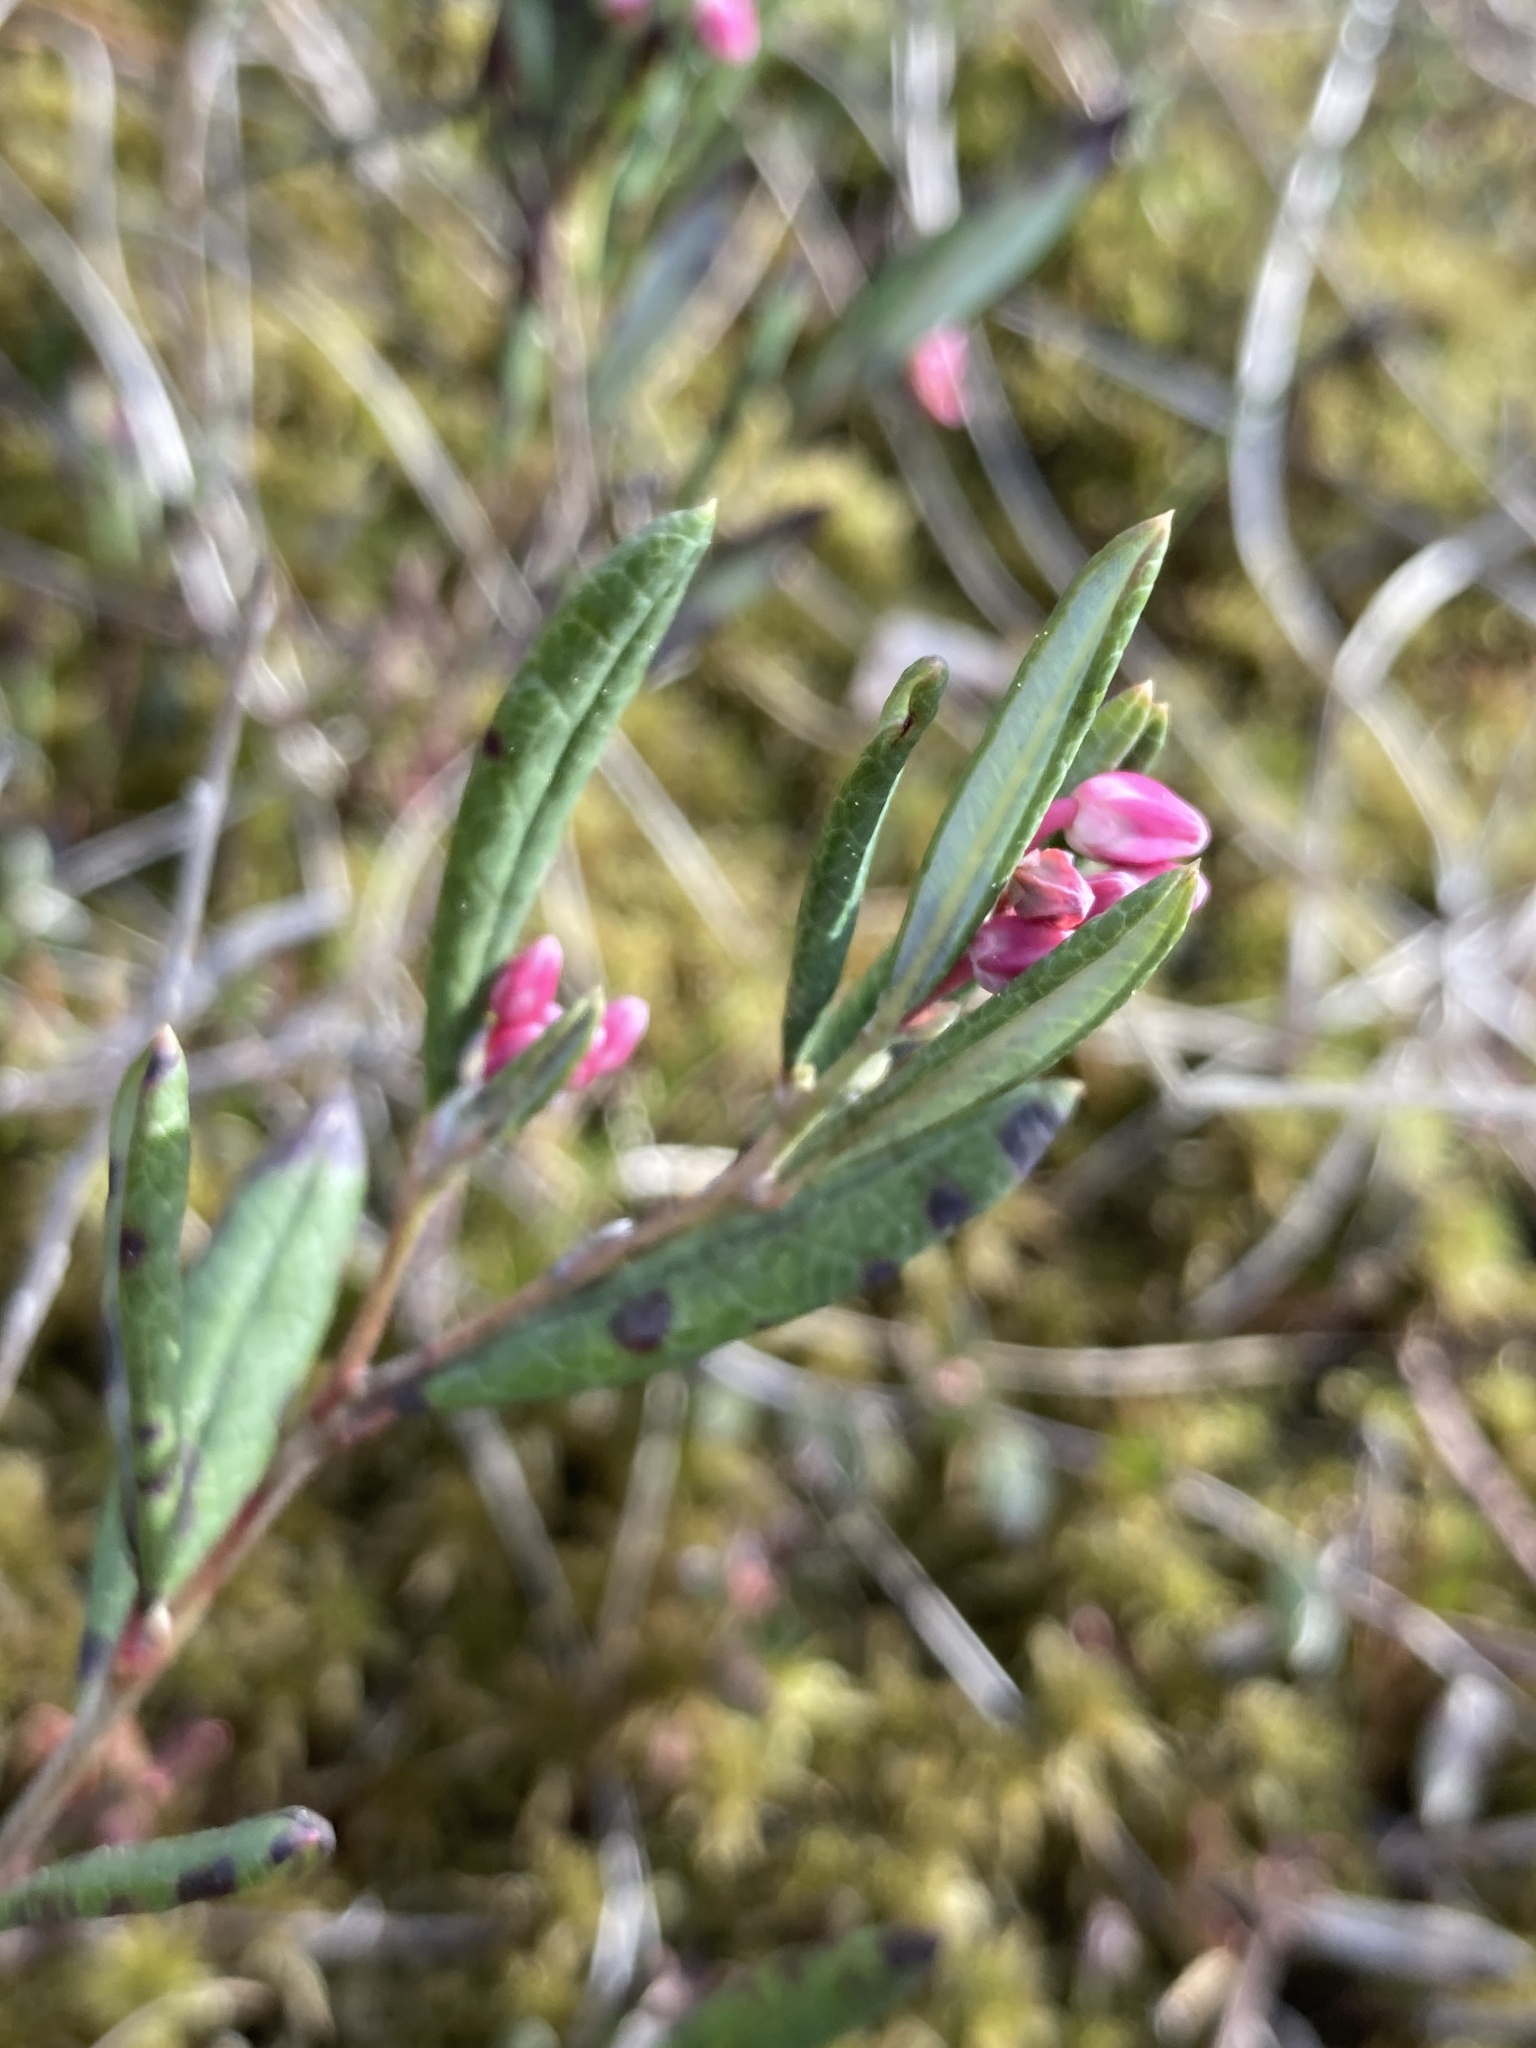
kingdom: Plantae
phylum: Tracheophyta
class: Magnoliopsida
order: Ericales
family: Ericaceae
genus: Andromeda
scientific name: Andromeda polifolia
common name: Bog-rosemary
